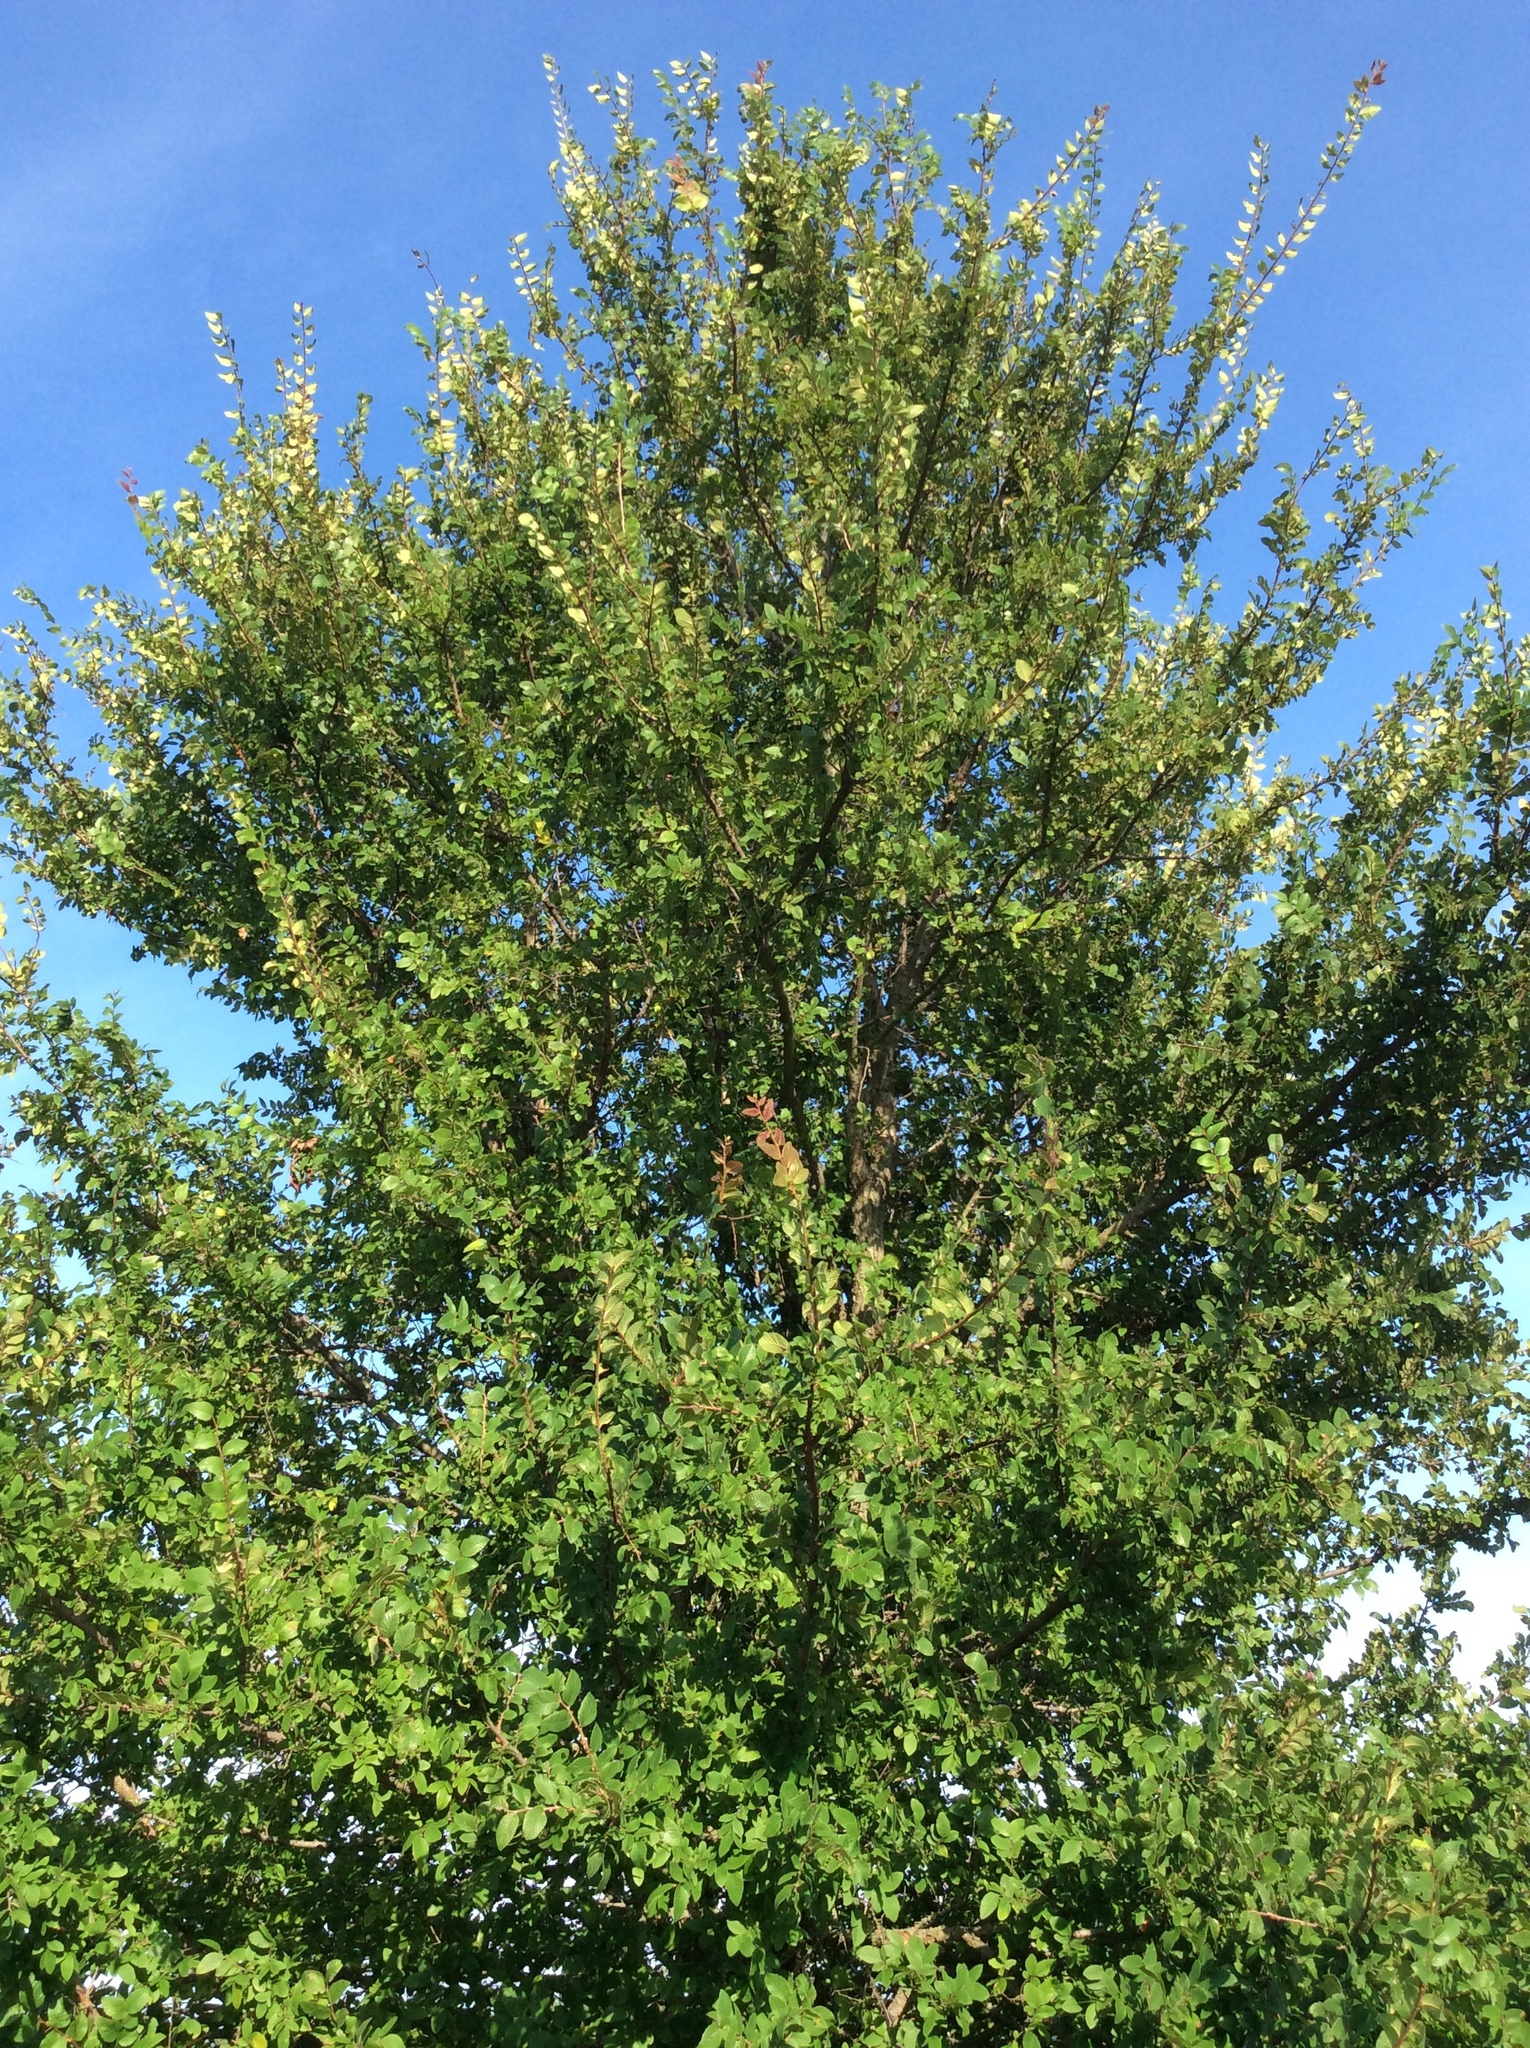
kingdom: Plantae
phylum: Tracheophyta
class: Magnoliopsida
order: Rosales
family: Ulmaceae
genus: Ulmus
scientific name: Ulmus crassifolia
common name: Basket elm
